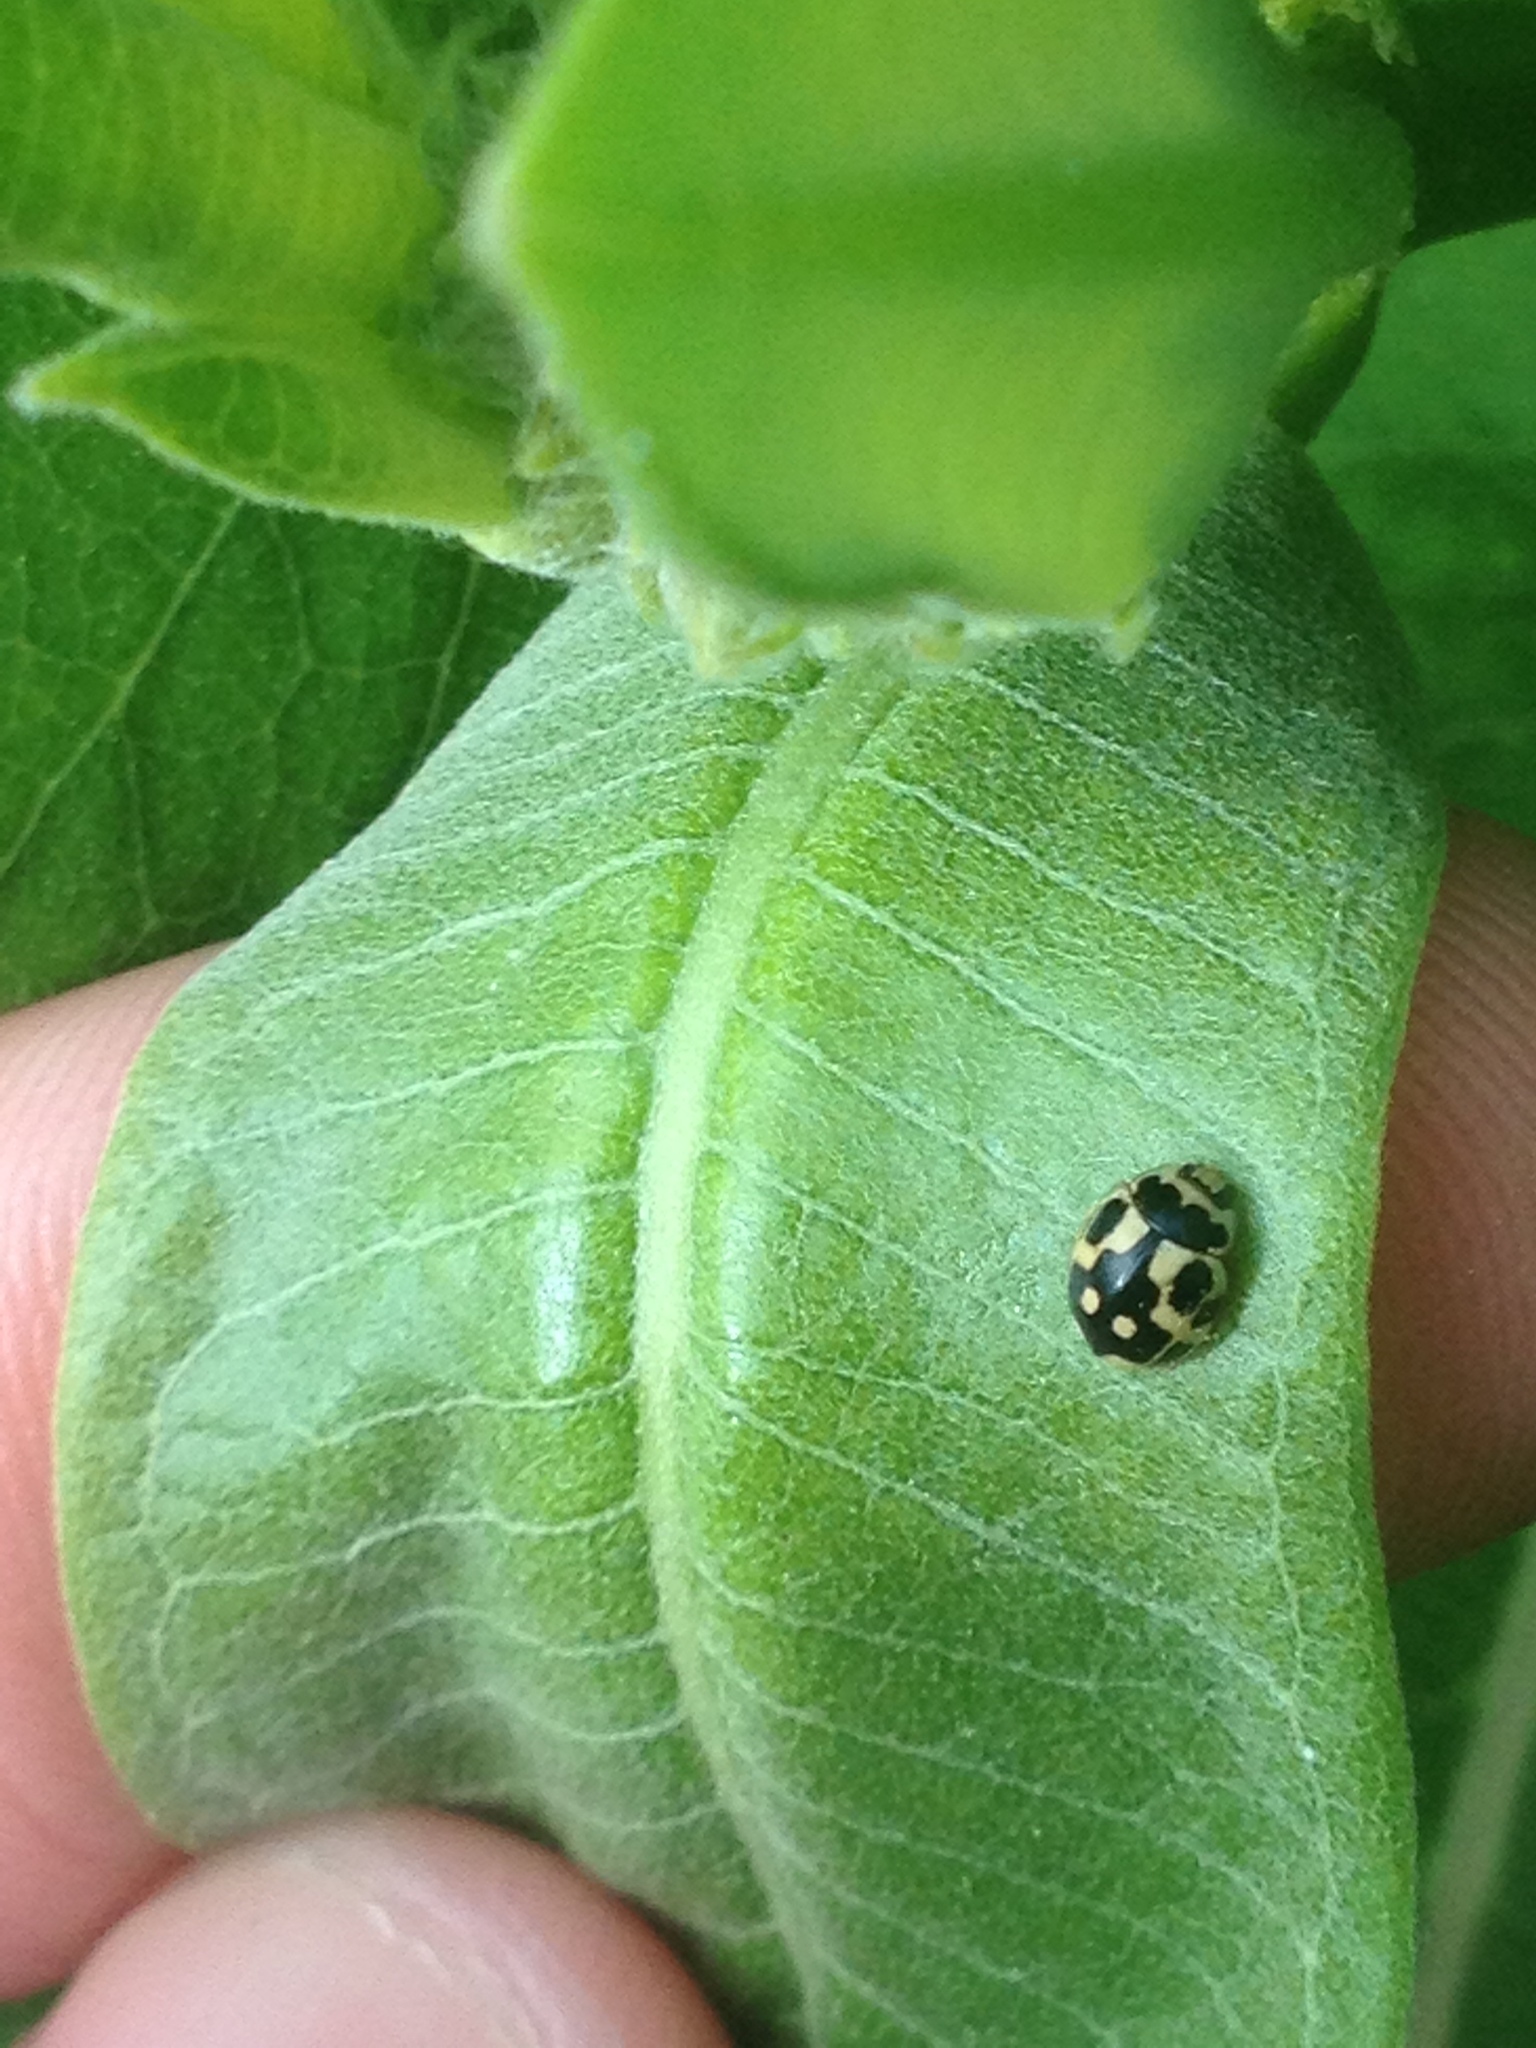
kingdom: Animalia
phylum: Arthropoda
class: Insecta
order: Coleoptera
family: Coccinellidae
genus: Propylaea
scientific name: Propylaea quatuordecimpunctata
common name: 14-spotted ladybird beetle
